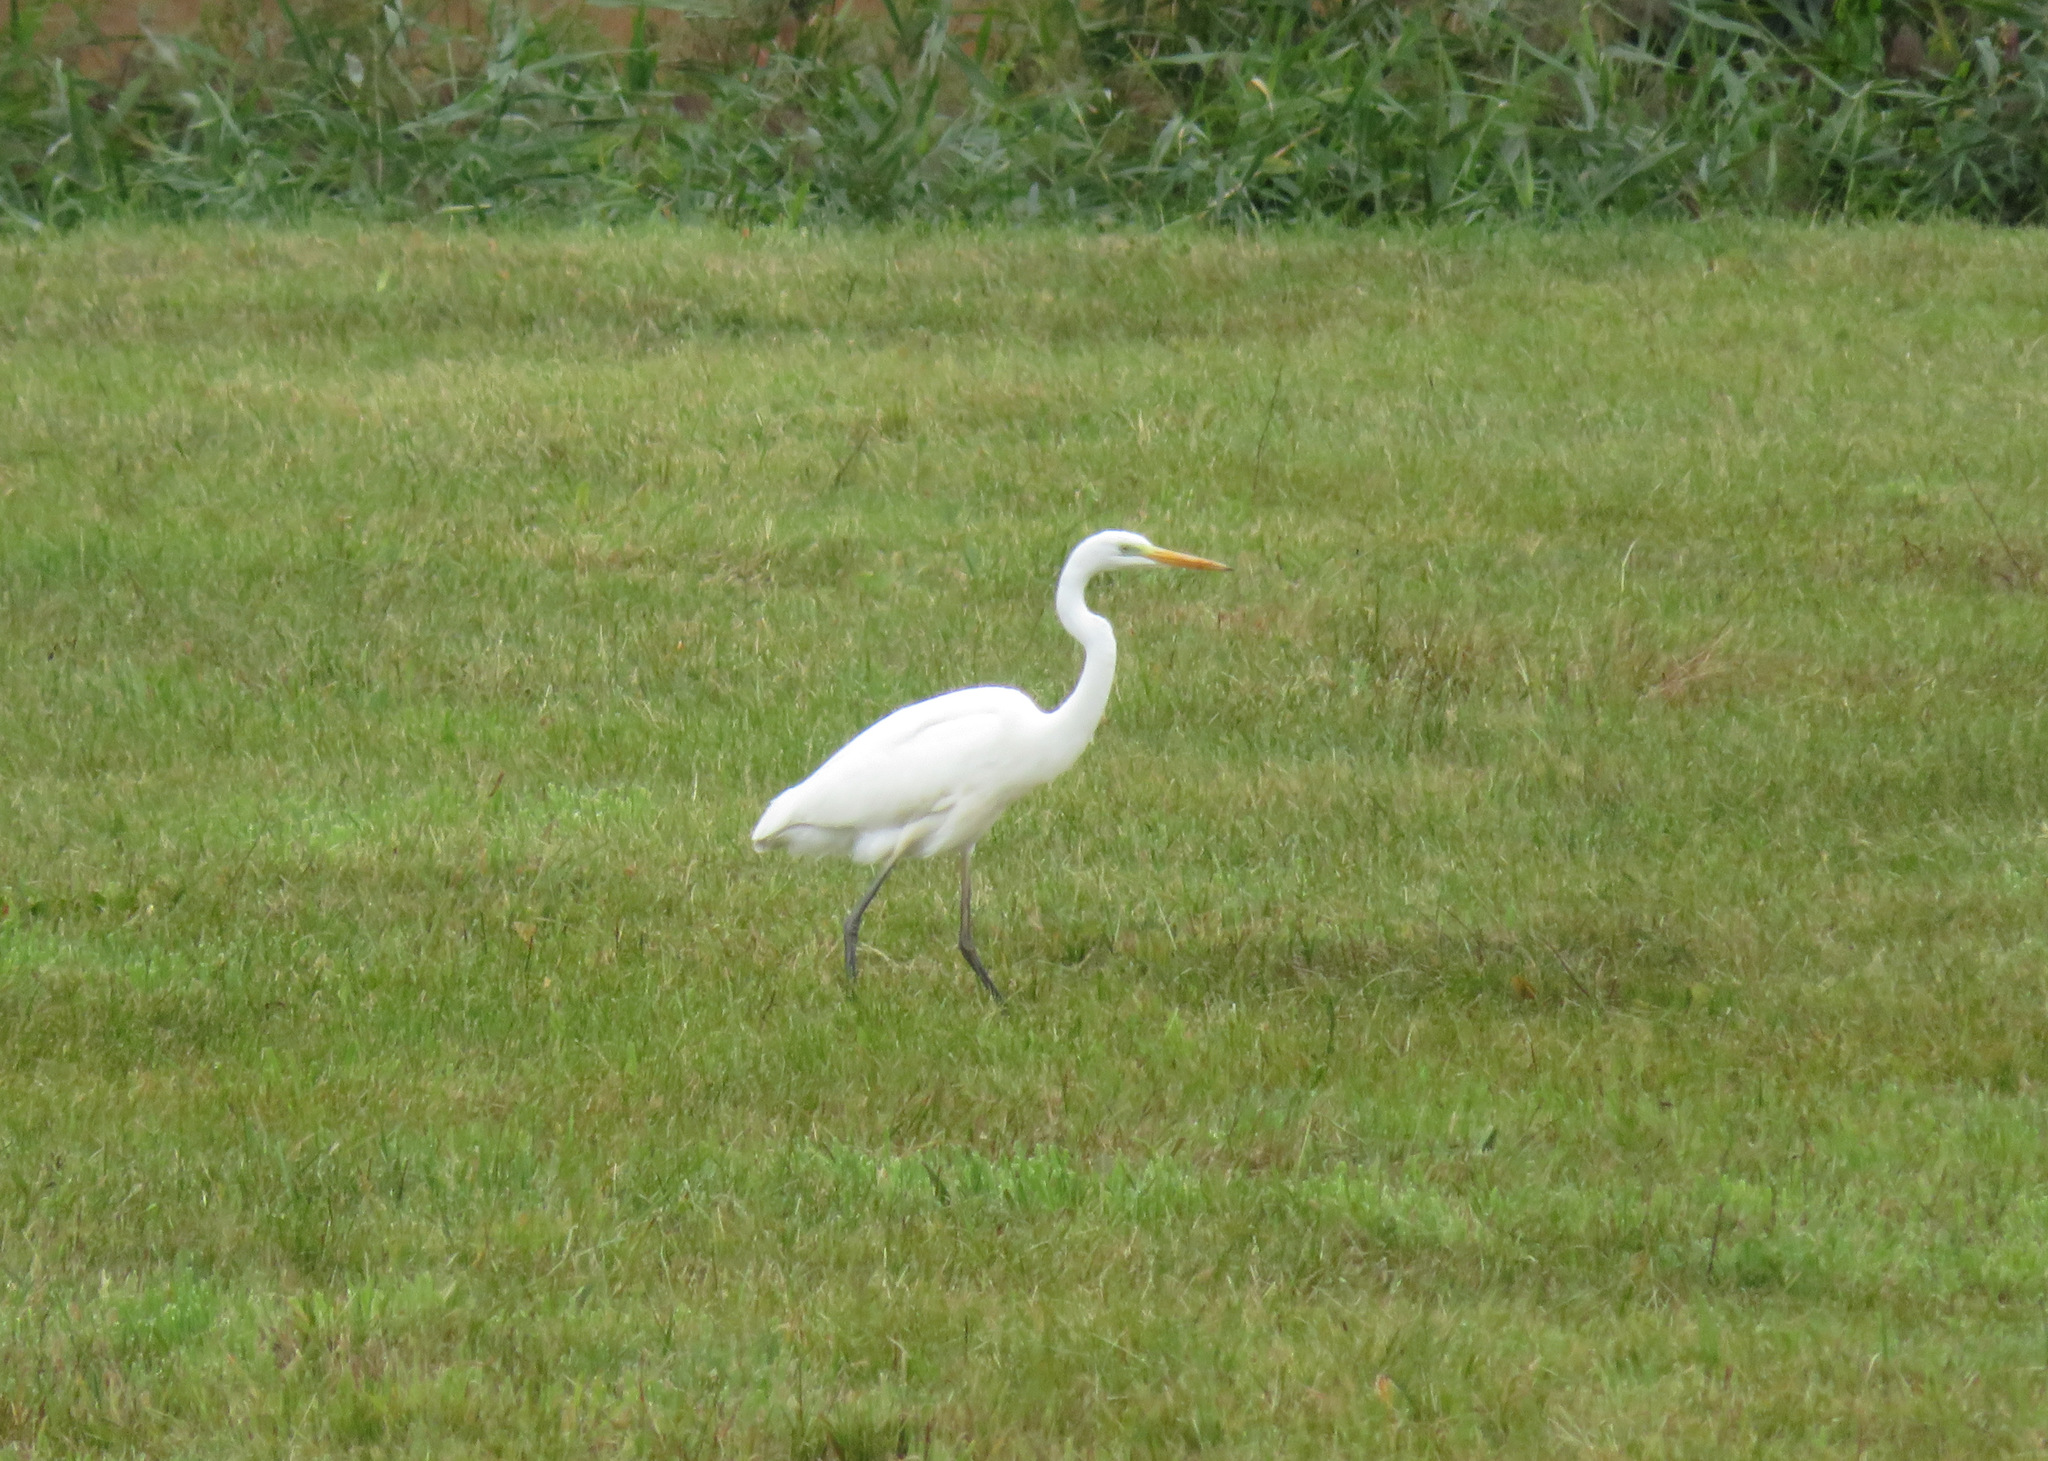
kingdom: Animalia
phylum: Chordata
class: Aves
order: Pelecaniformes
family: Ardeidae
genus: Ardea
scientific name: Ardea alba
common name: Great egret
